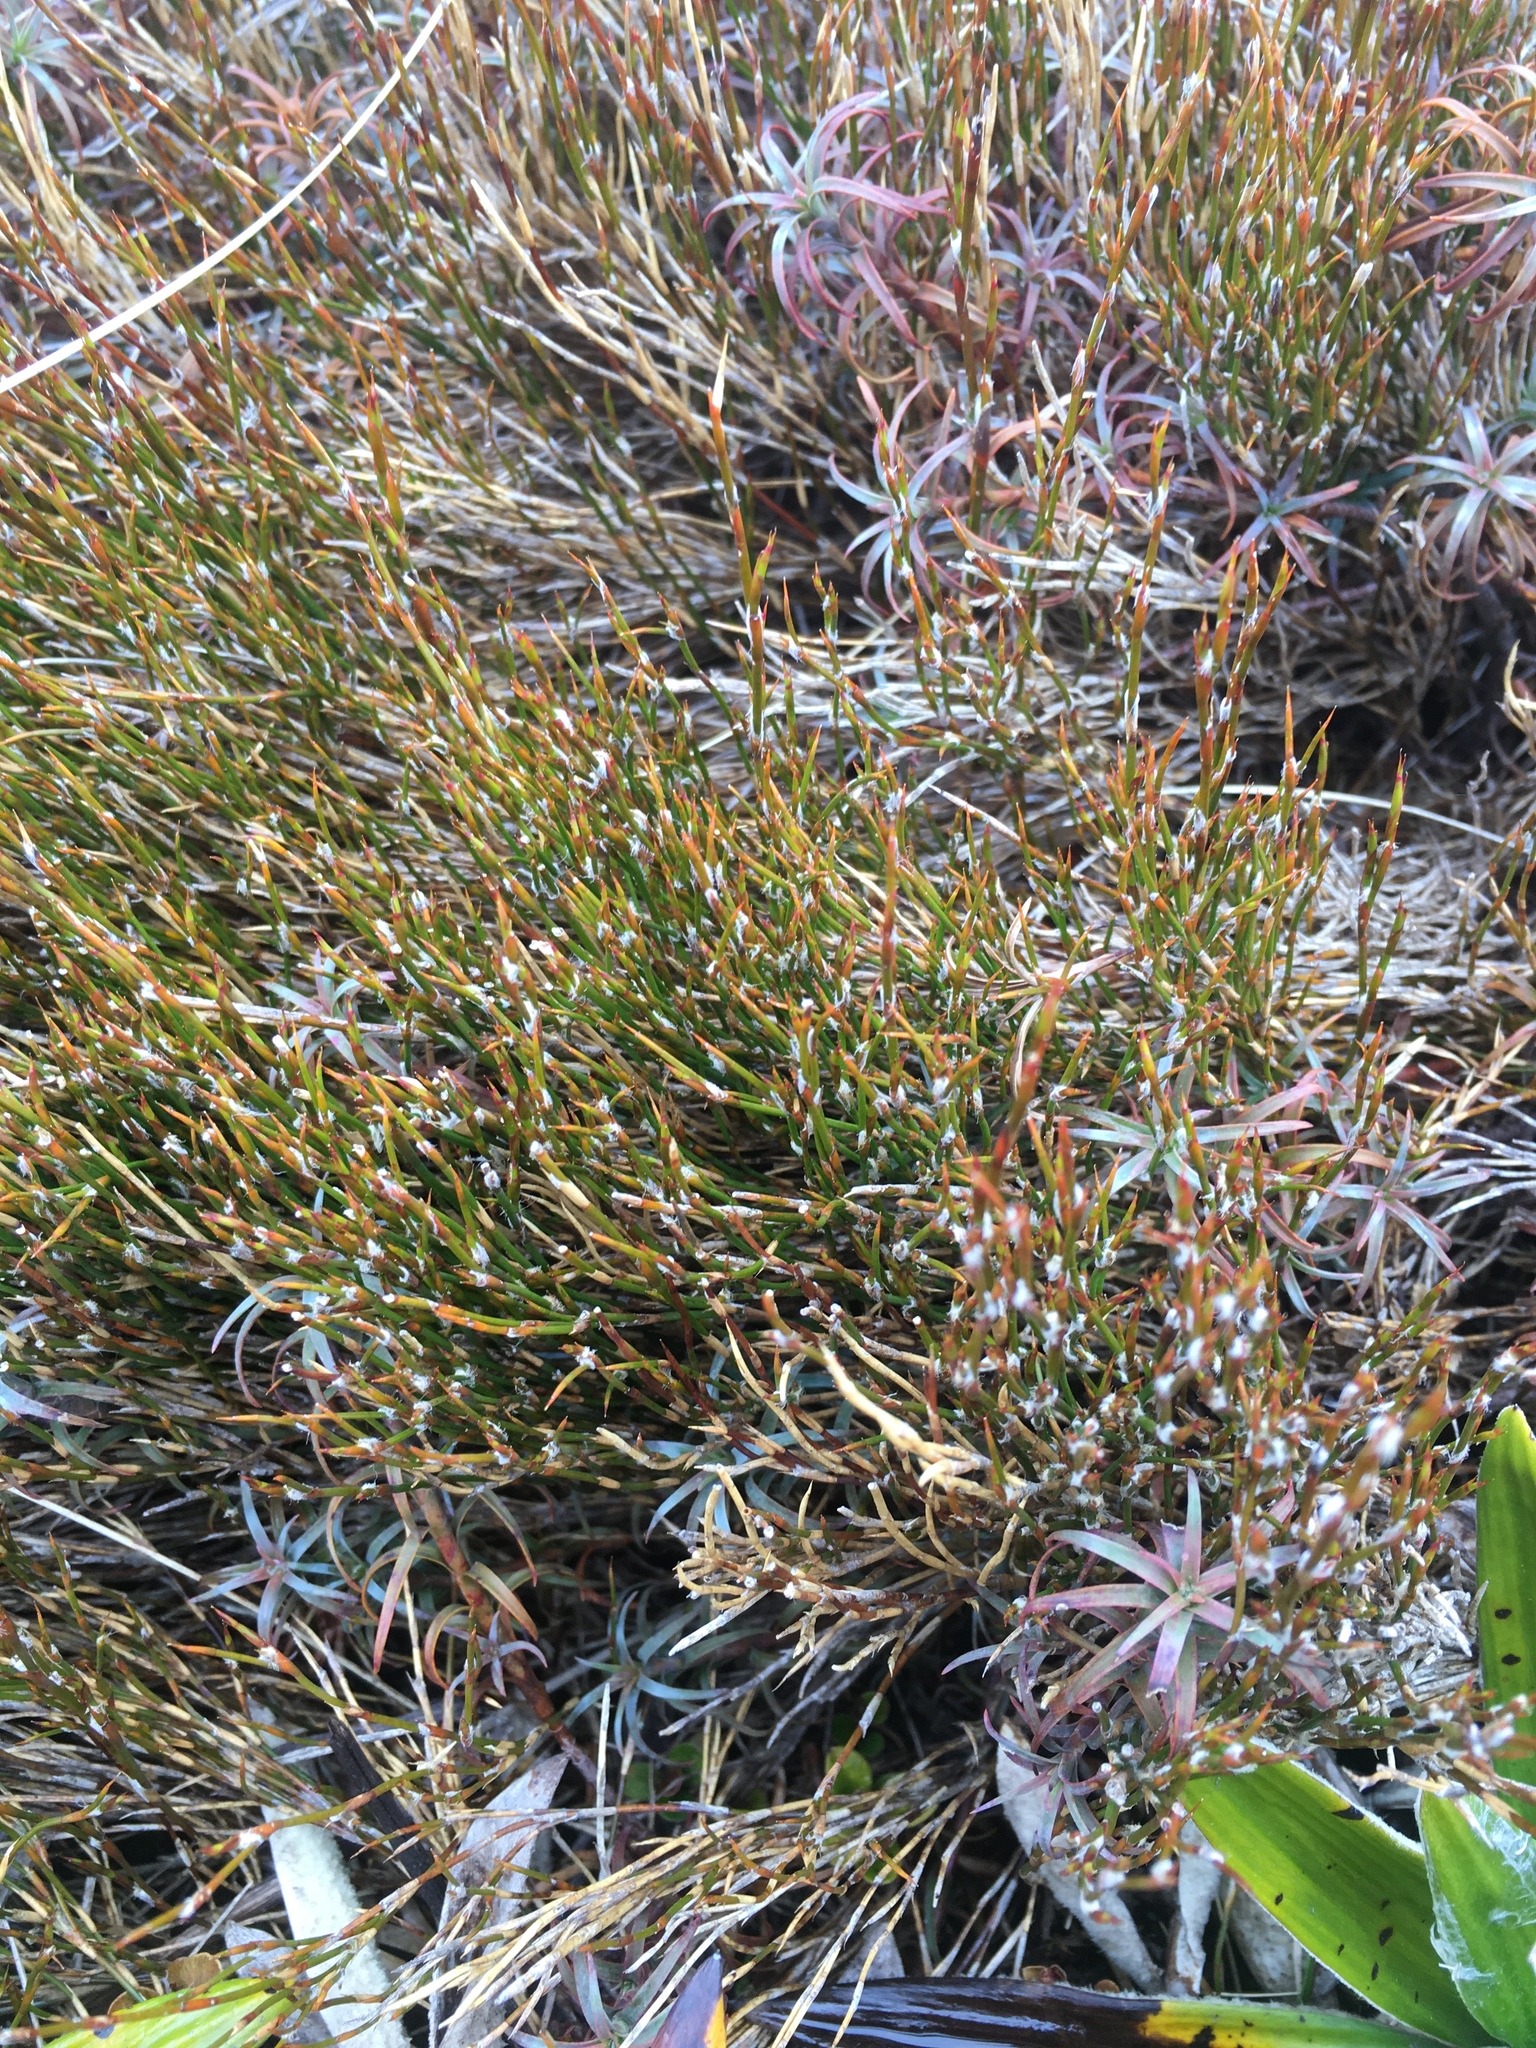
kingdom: Plantae
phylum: Tracheophyta
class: Liliopsida
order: Poales
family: Restionaceae
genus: Empodisma
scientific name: Empodisma minus
